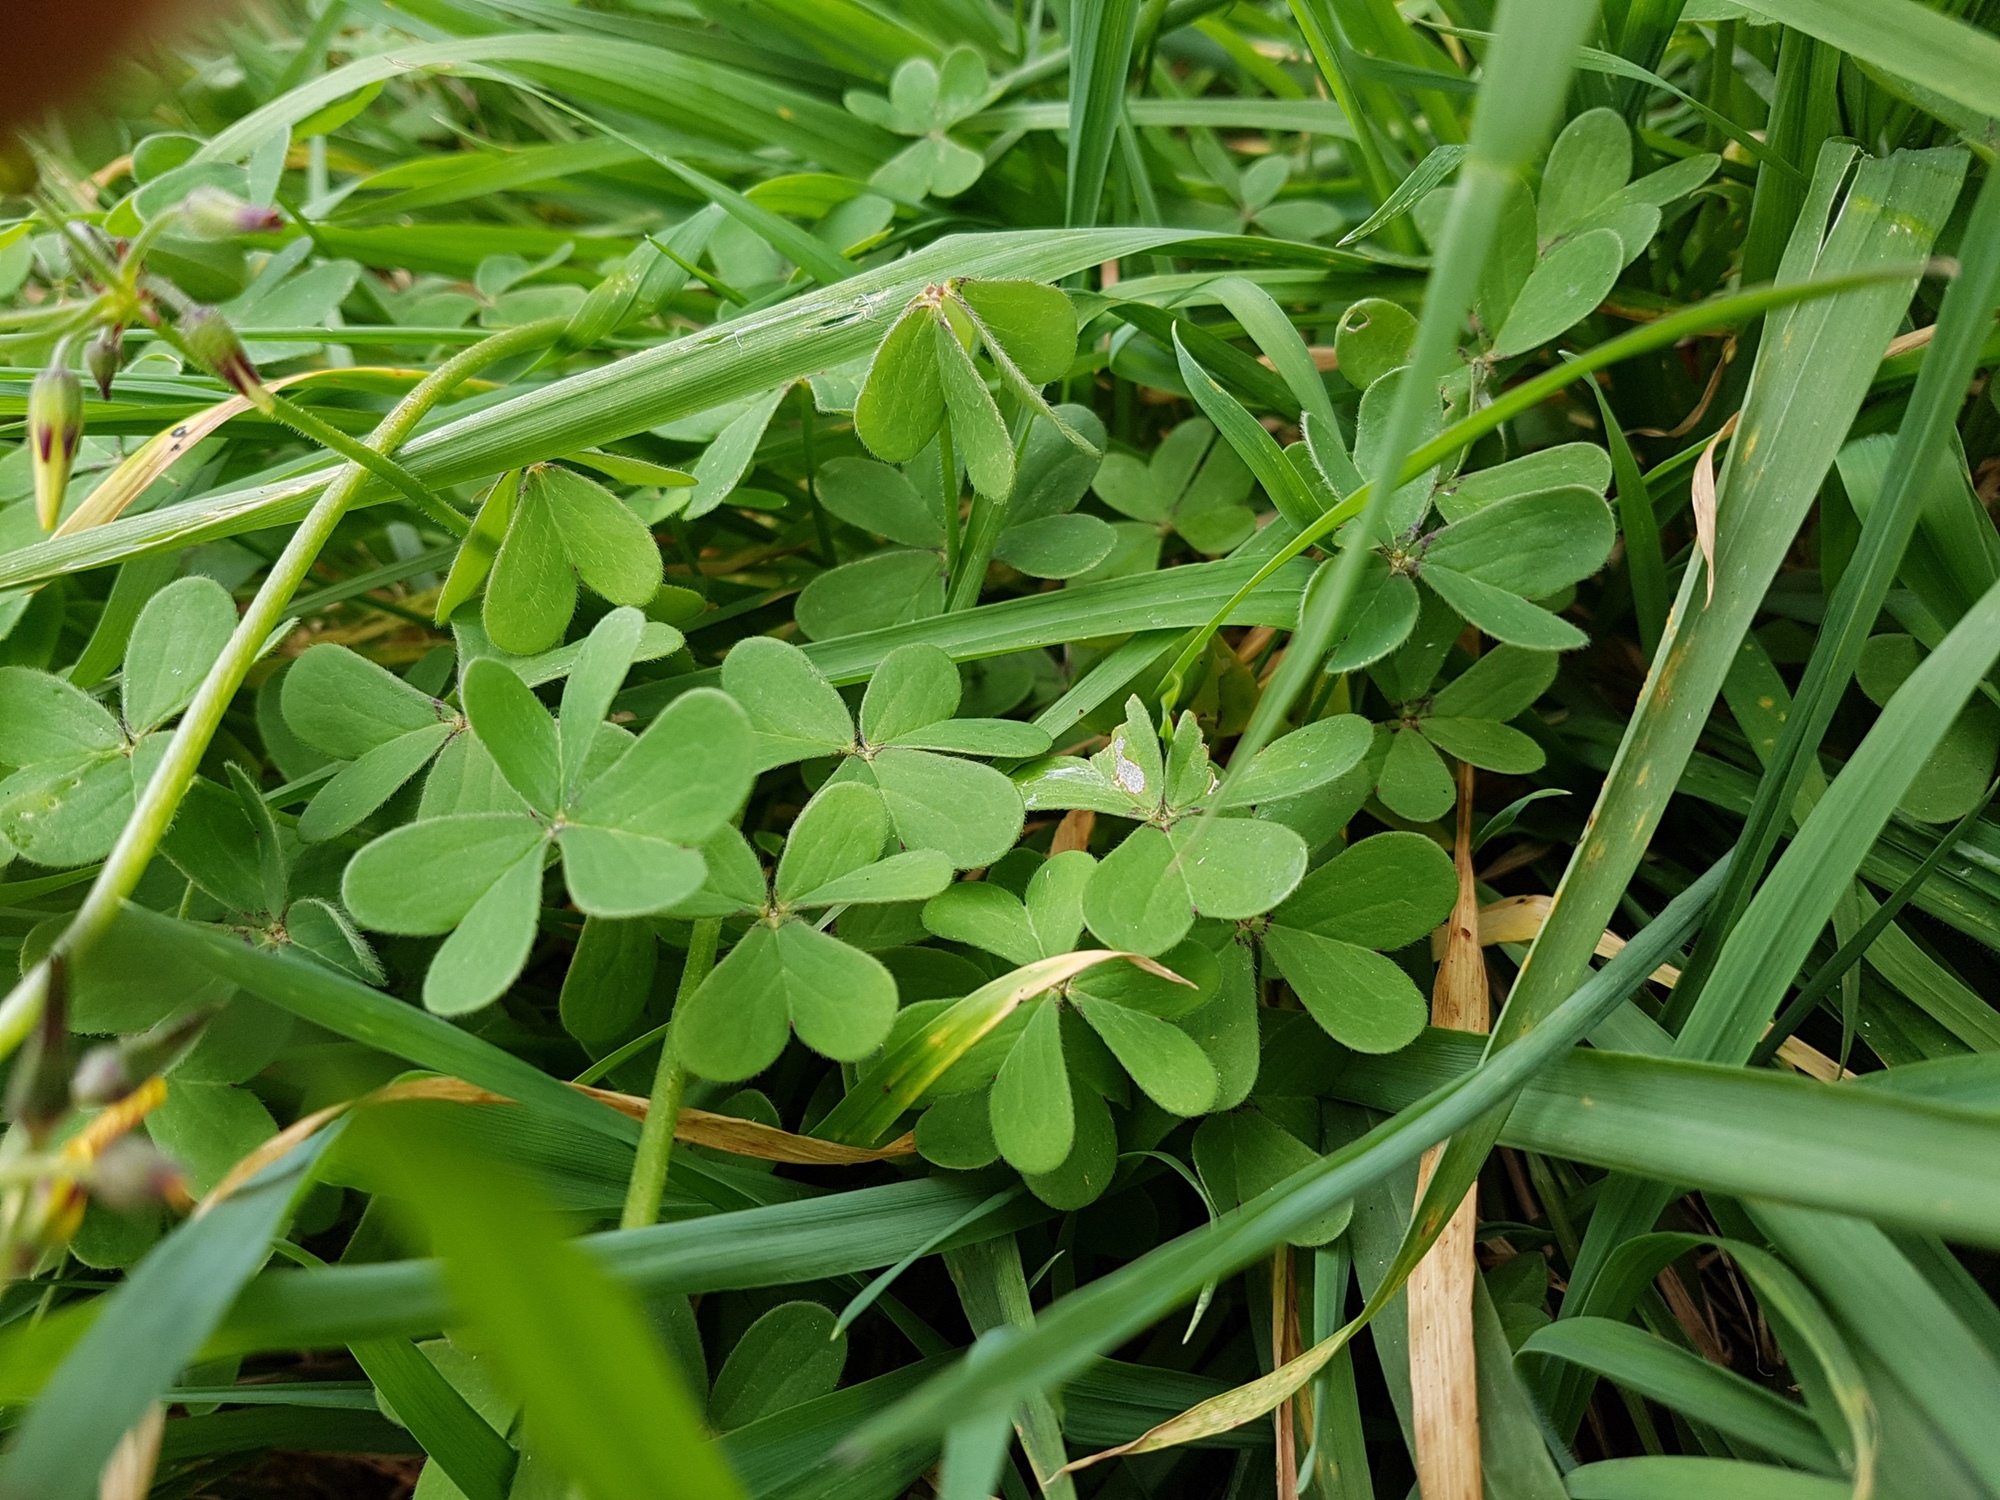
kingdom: Plantae
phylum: Tracheophyta
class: Magnoliopsida
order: Oxalidales
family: Oxalidaceae
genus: Oxalis
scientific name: Oxalis pes-caprae
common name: Bermuda-buttercup
